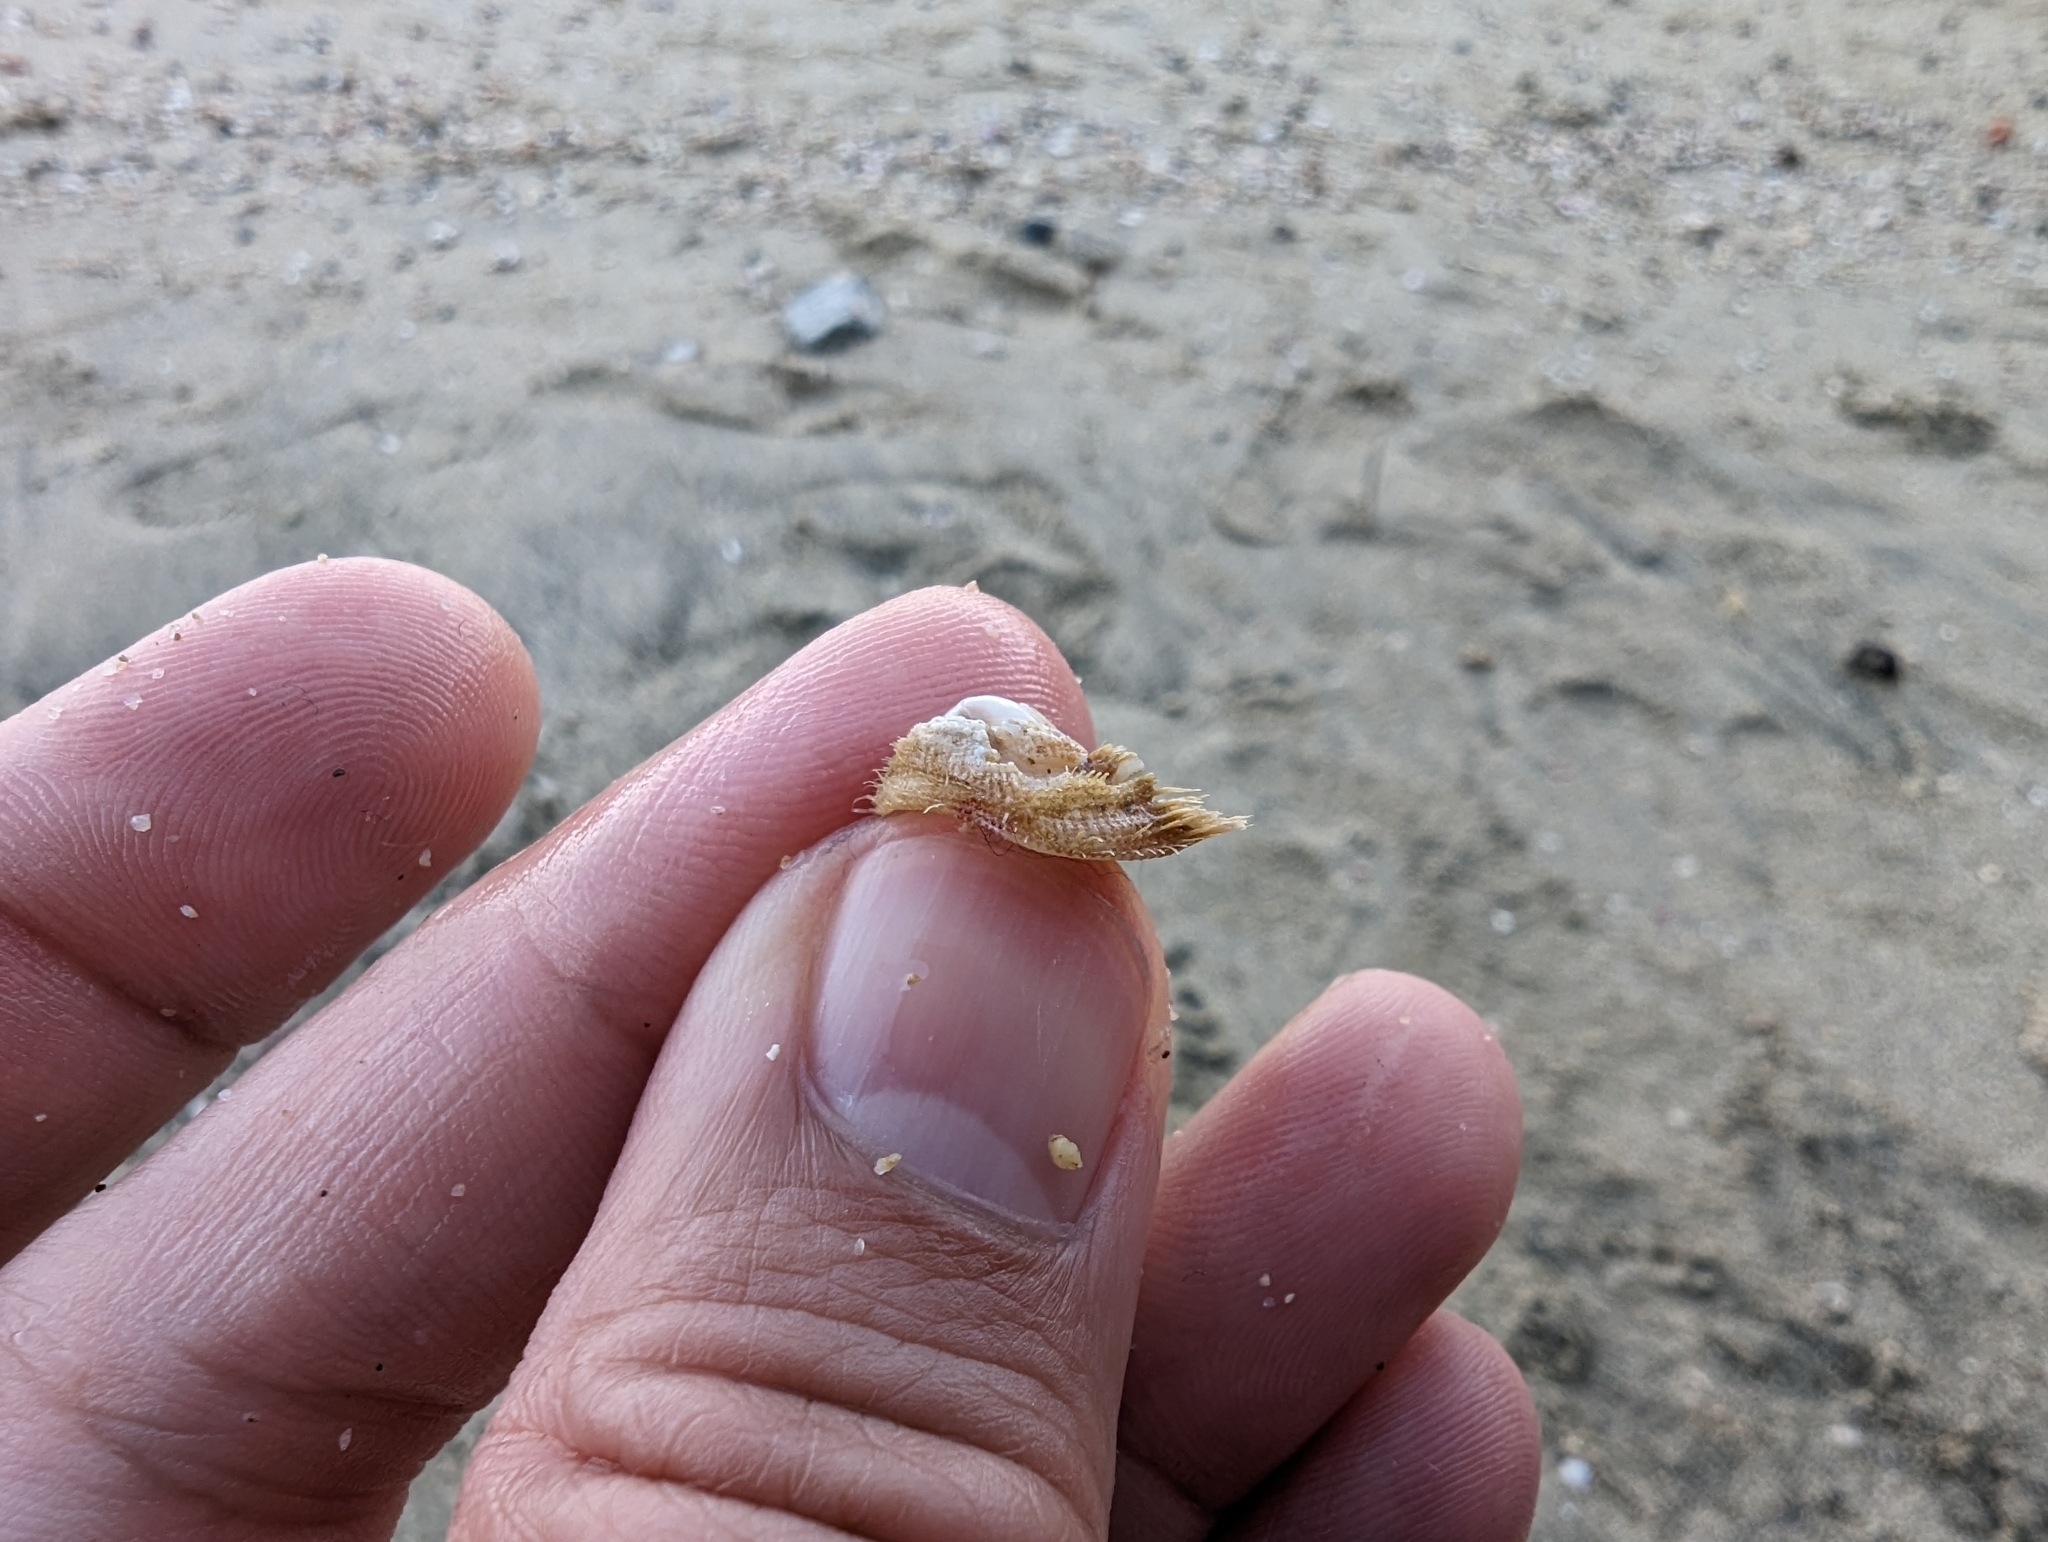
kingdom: Animalia
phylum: Mollusca
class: Gastropoda
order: Littorinimorpha
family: Hipponicidae
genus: Pilosabia
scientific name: Pilosabia trigona
